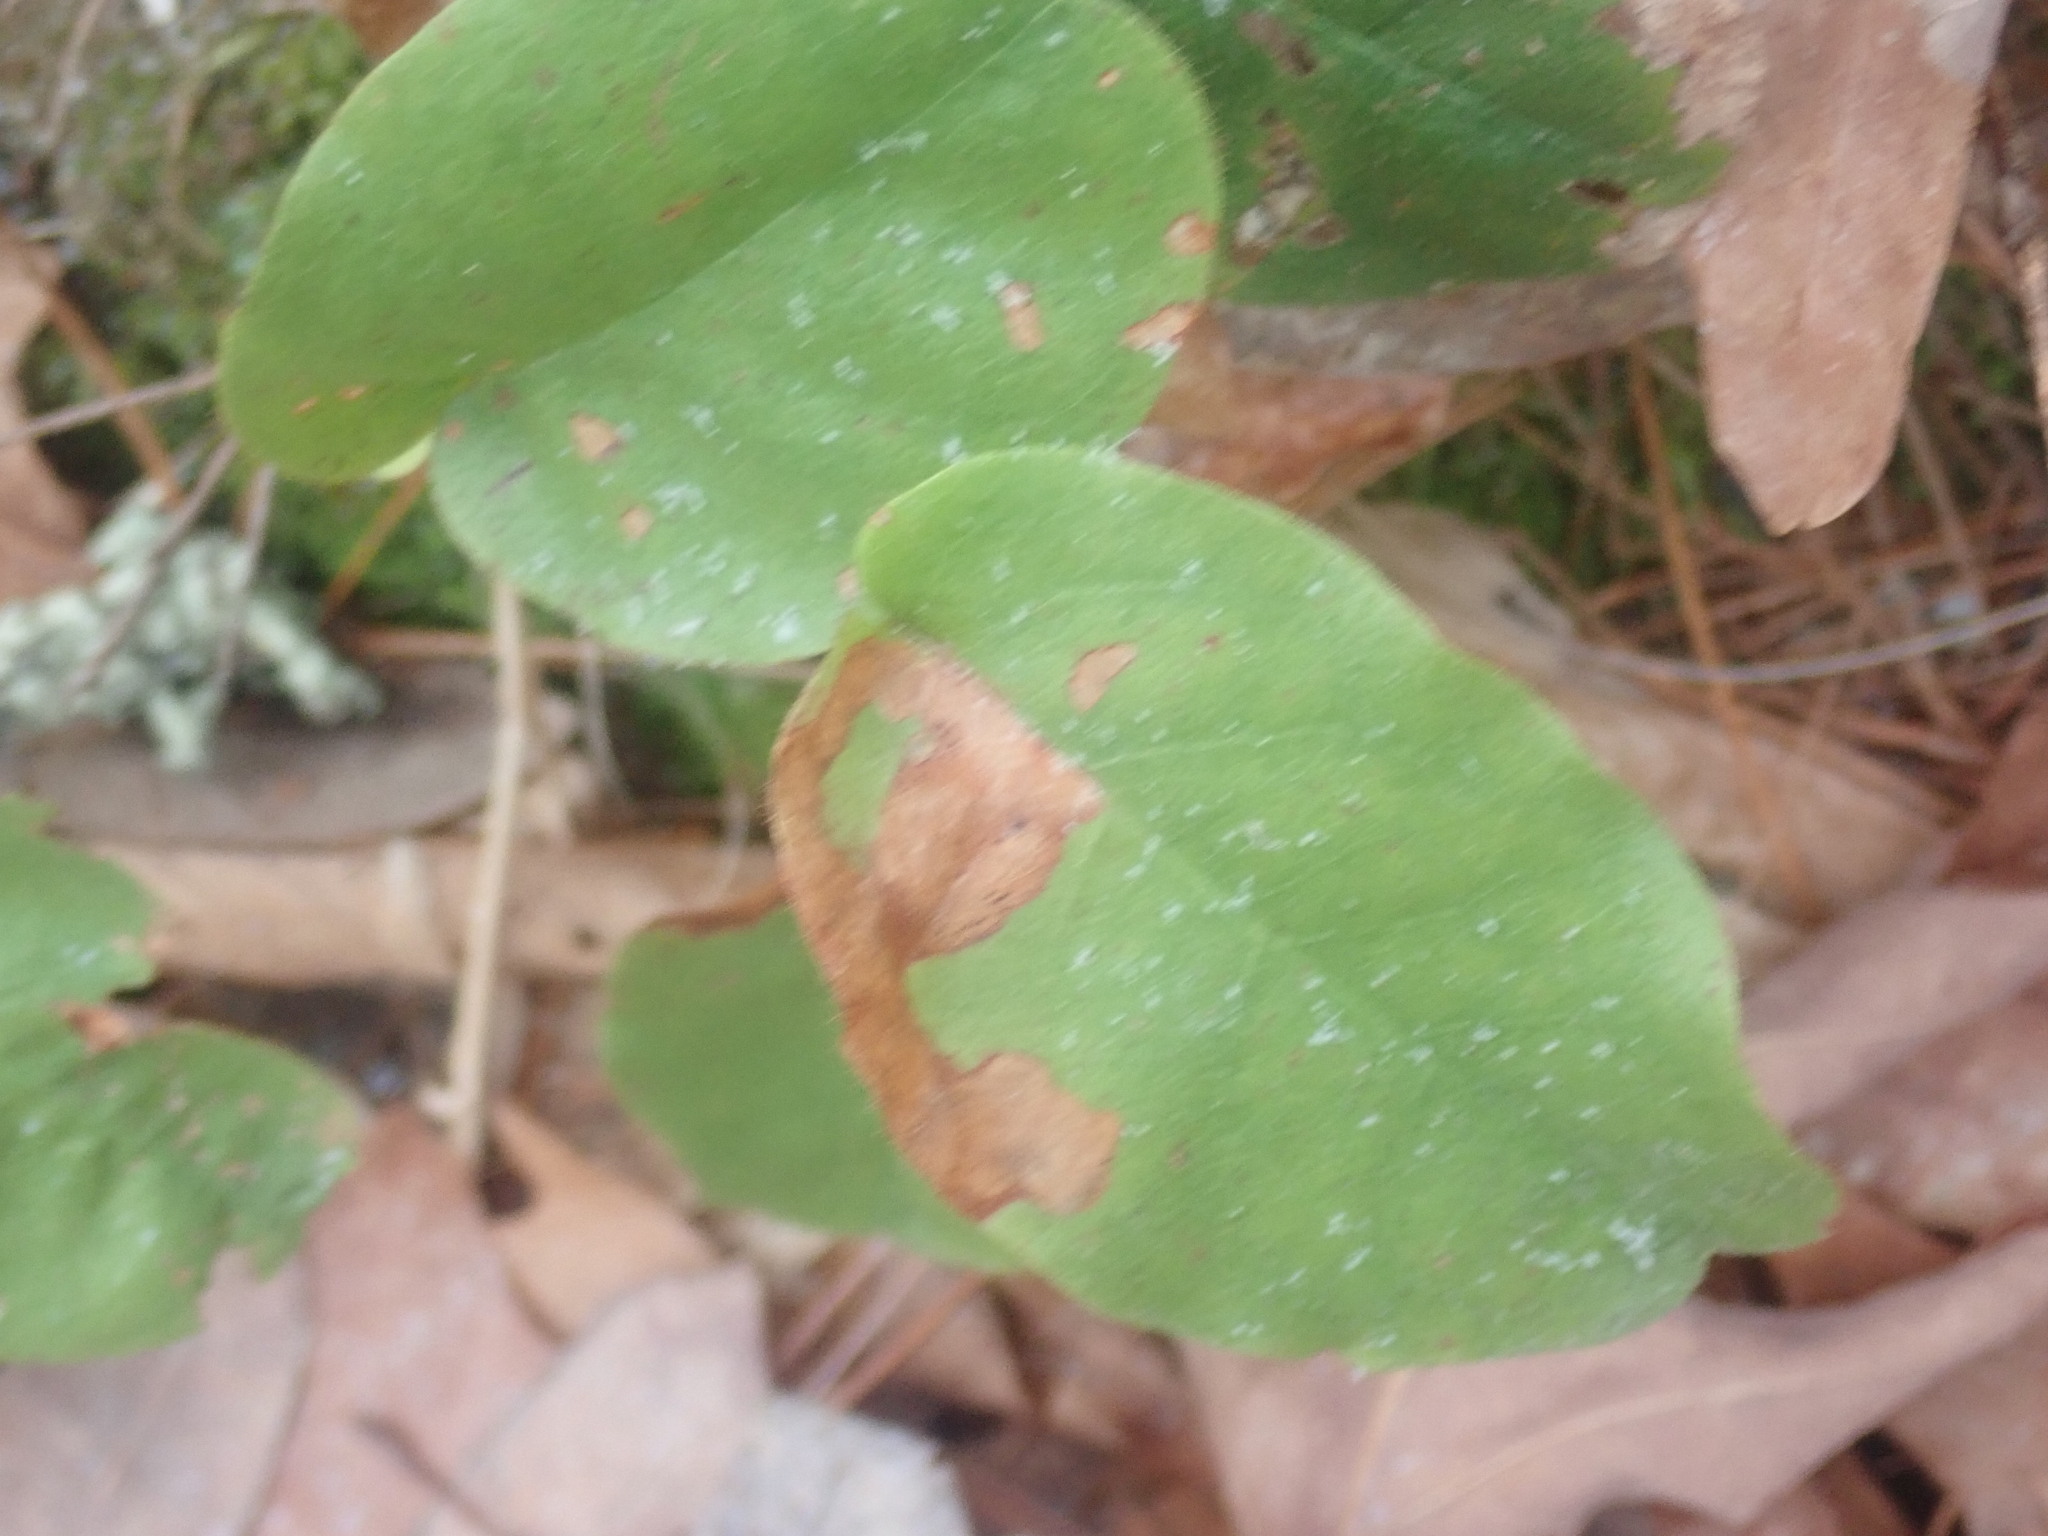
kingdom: Animalia
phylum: Arthropoda
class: Insecta
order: Coleoptera
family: Buprestidae
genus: Brachys
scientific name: Brachys
